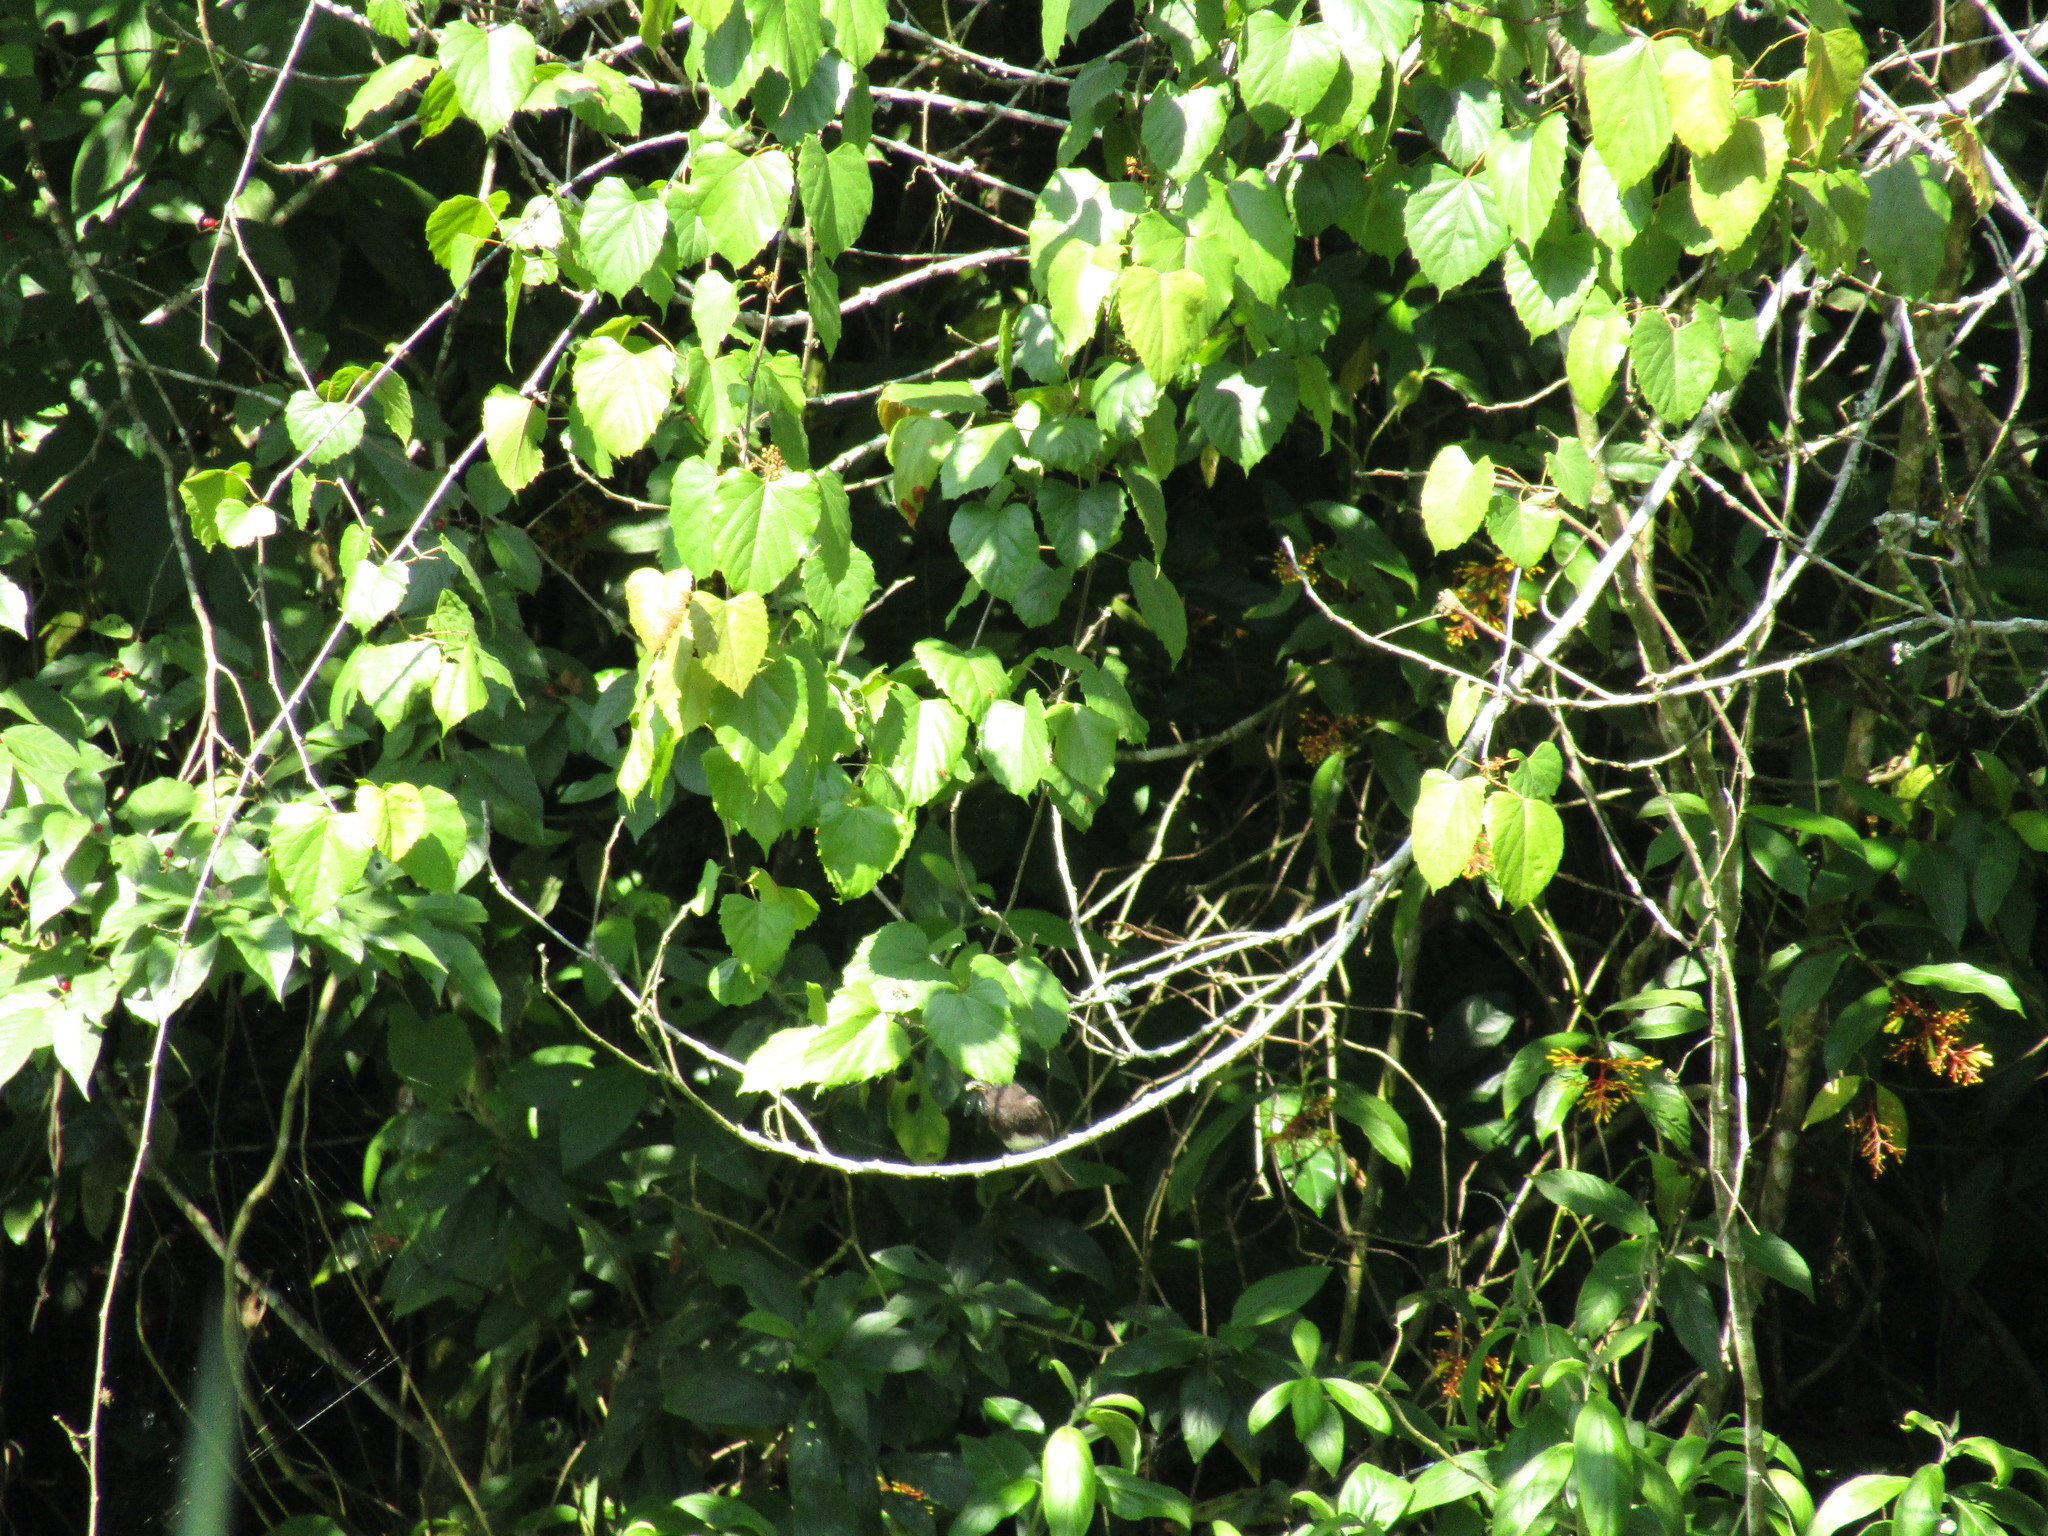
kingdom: Animalia
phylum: Chordata
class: Aves
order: Passeriformes
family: Tyrannidae
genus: Sayornis
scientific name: Sayornis nigricans
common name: Black phoebe
